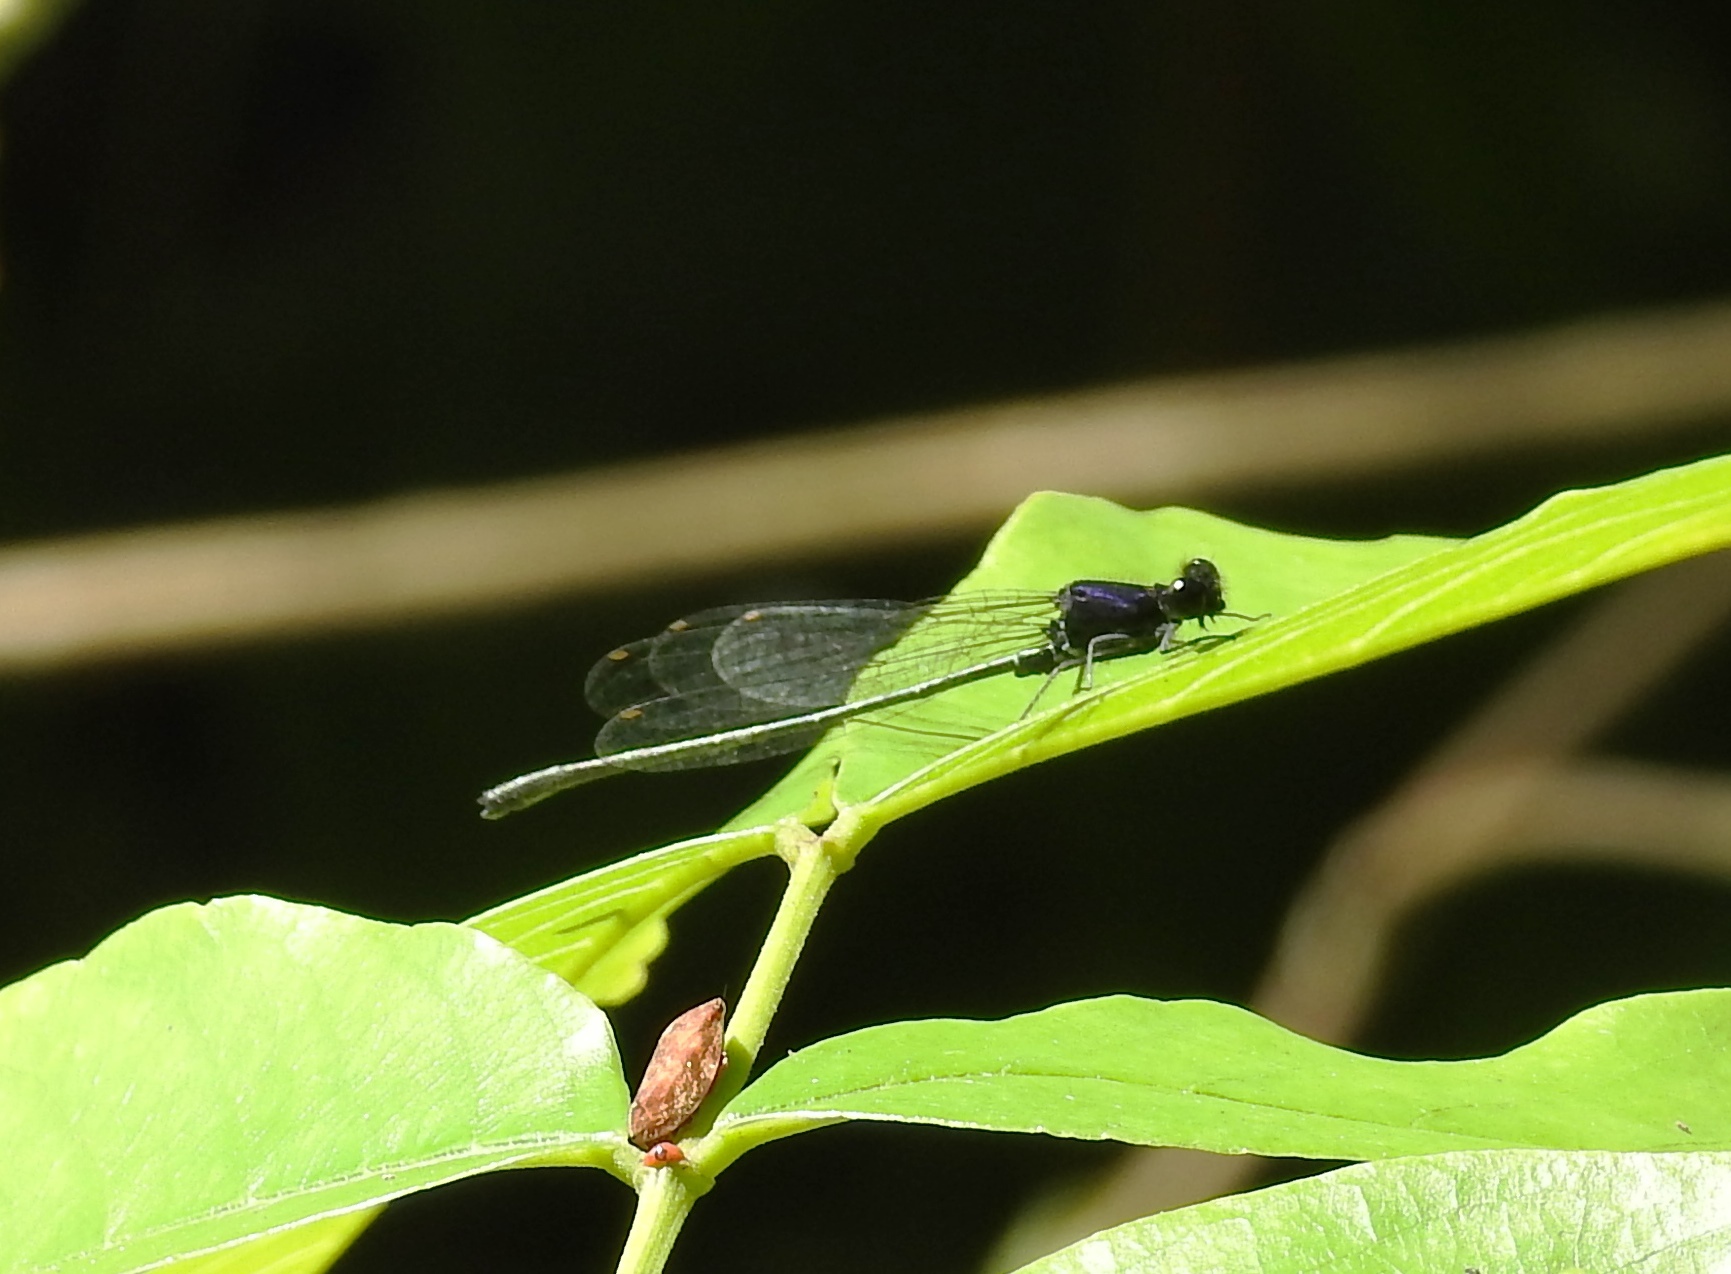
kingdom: Animalia
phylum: Arthropoda
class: Insecta
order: Odonata
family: Platycnemididae
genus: Onychargia
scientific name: Onychargia atrocyana
